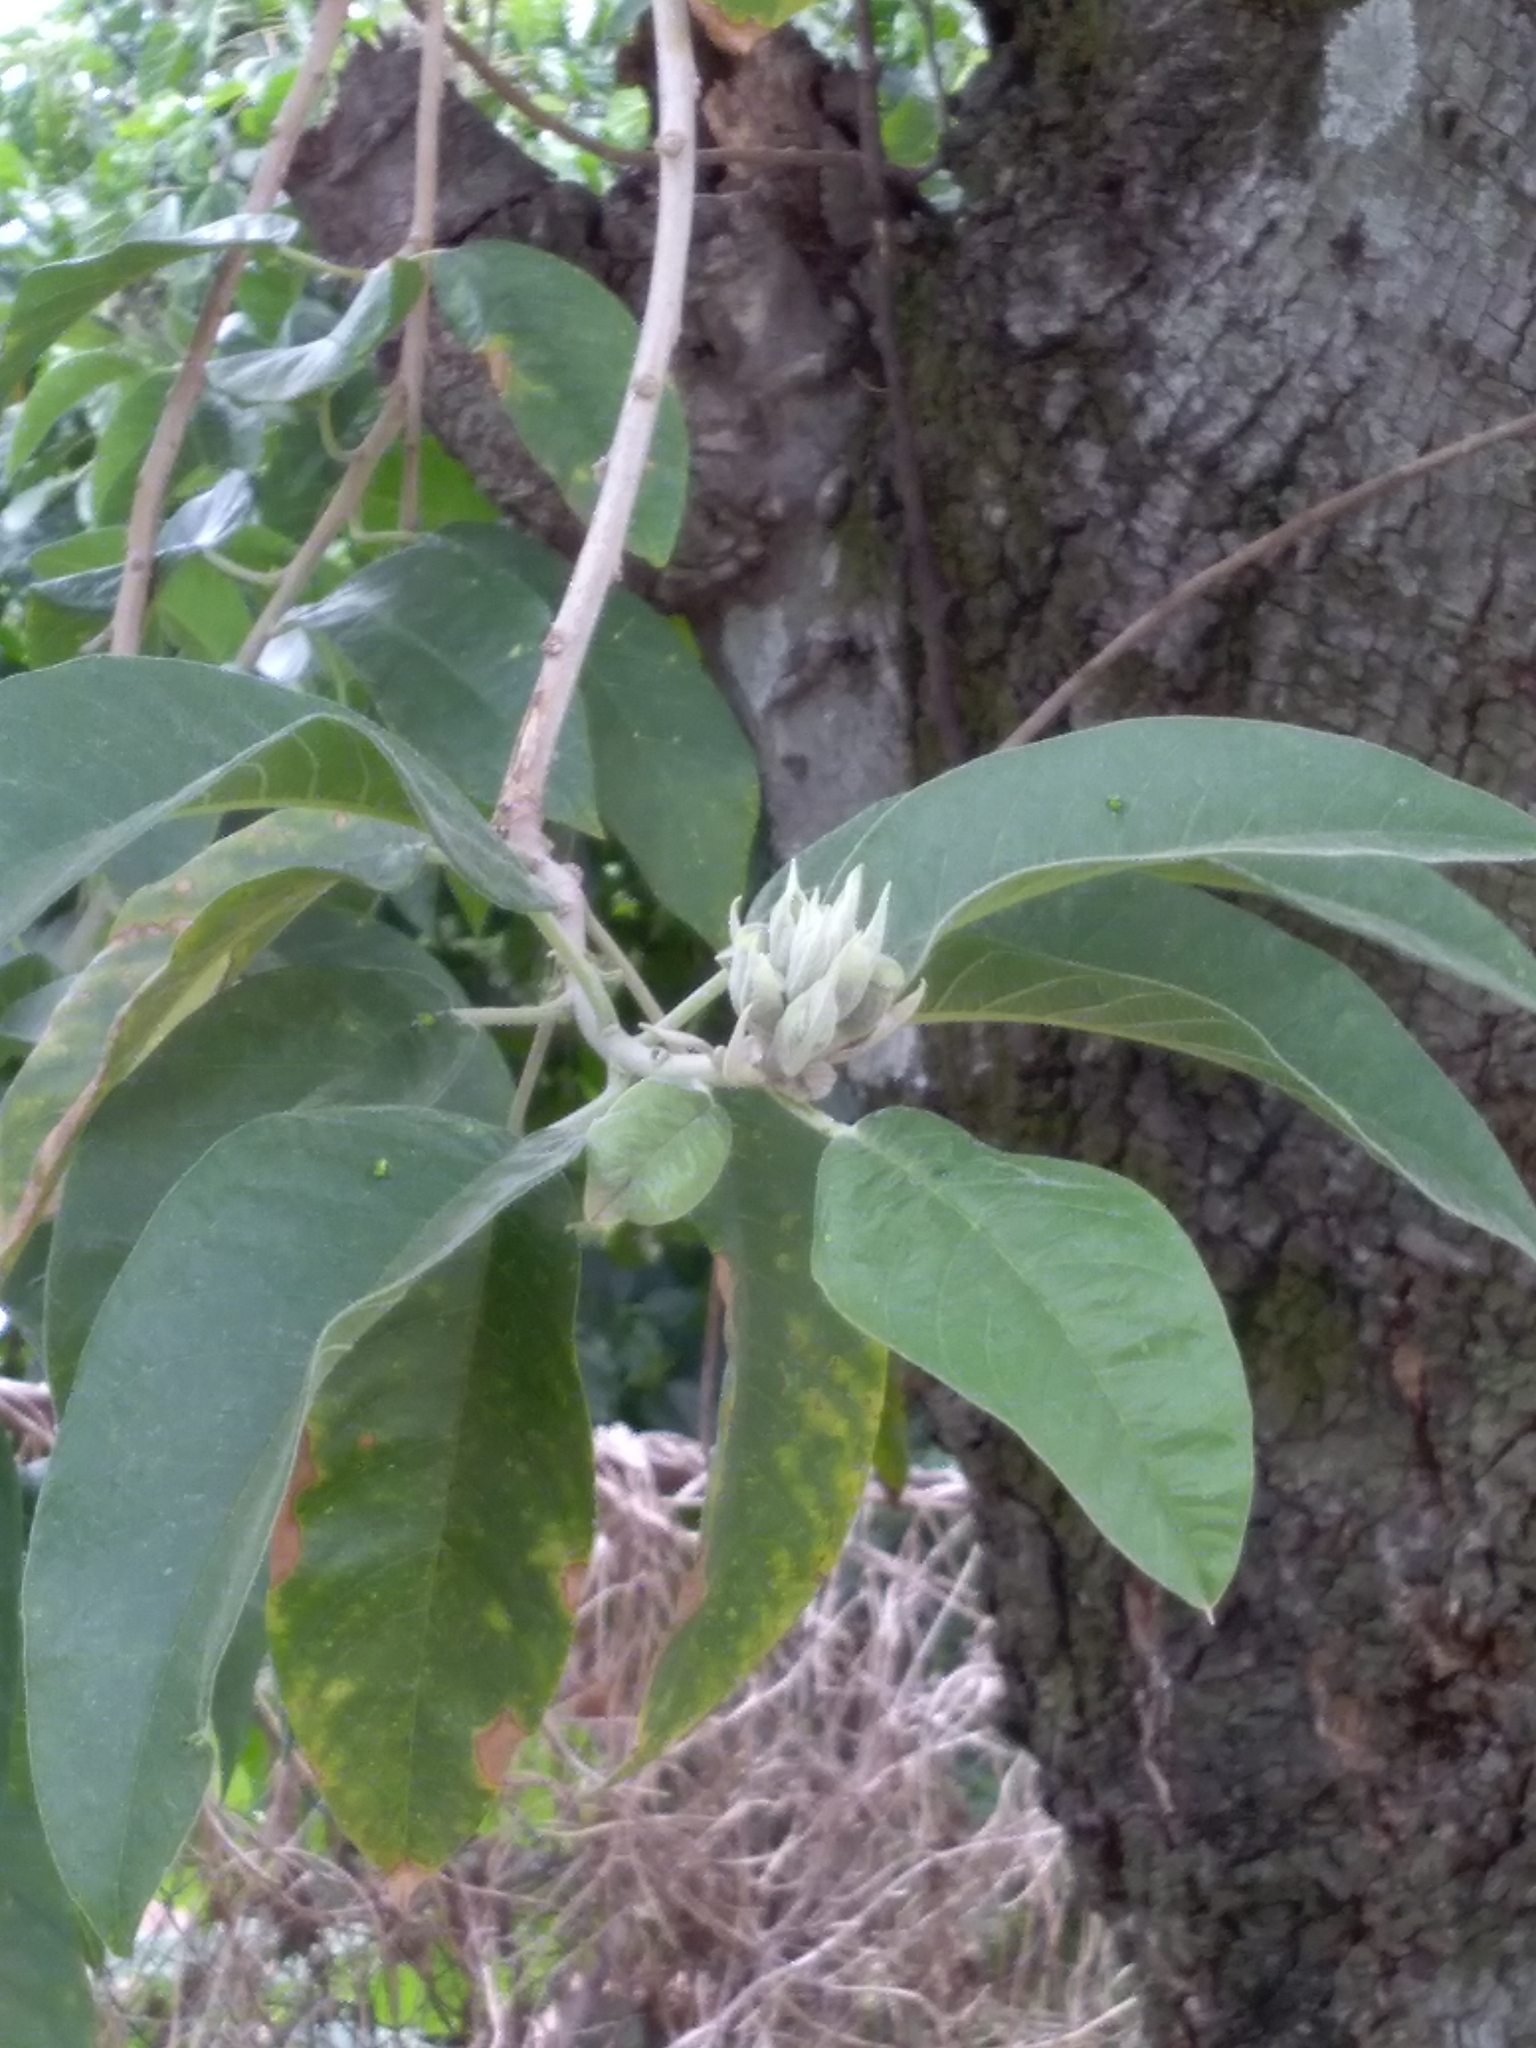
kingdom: Plantae
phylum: Tracheophyta
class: Magnoliopsida
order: Solanales
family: Convolvulaceae
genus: Ipomoea
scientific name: Ipomoea murucoides
